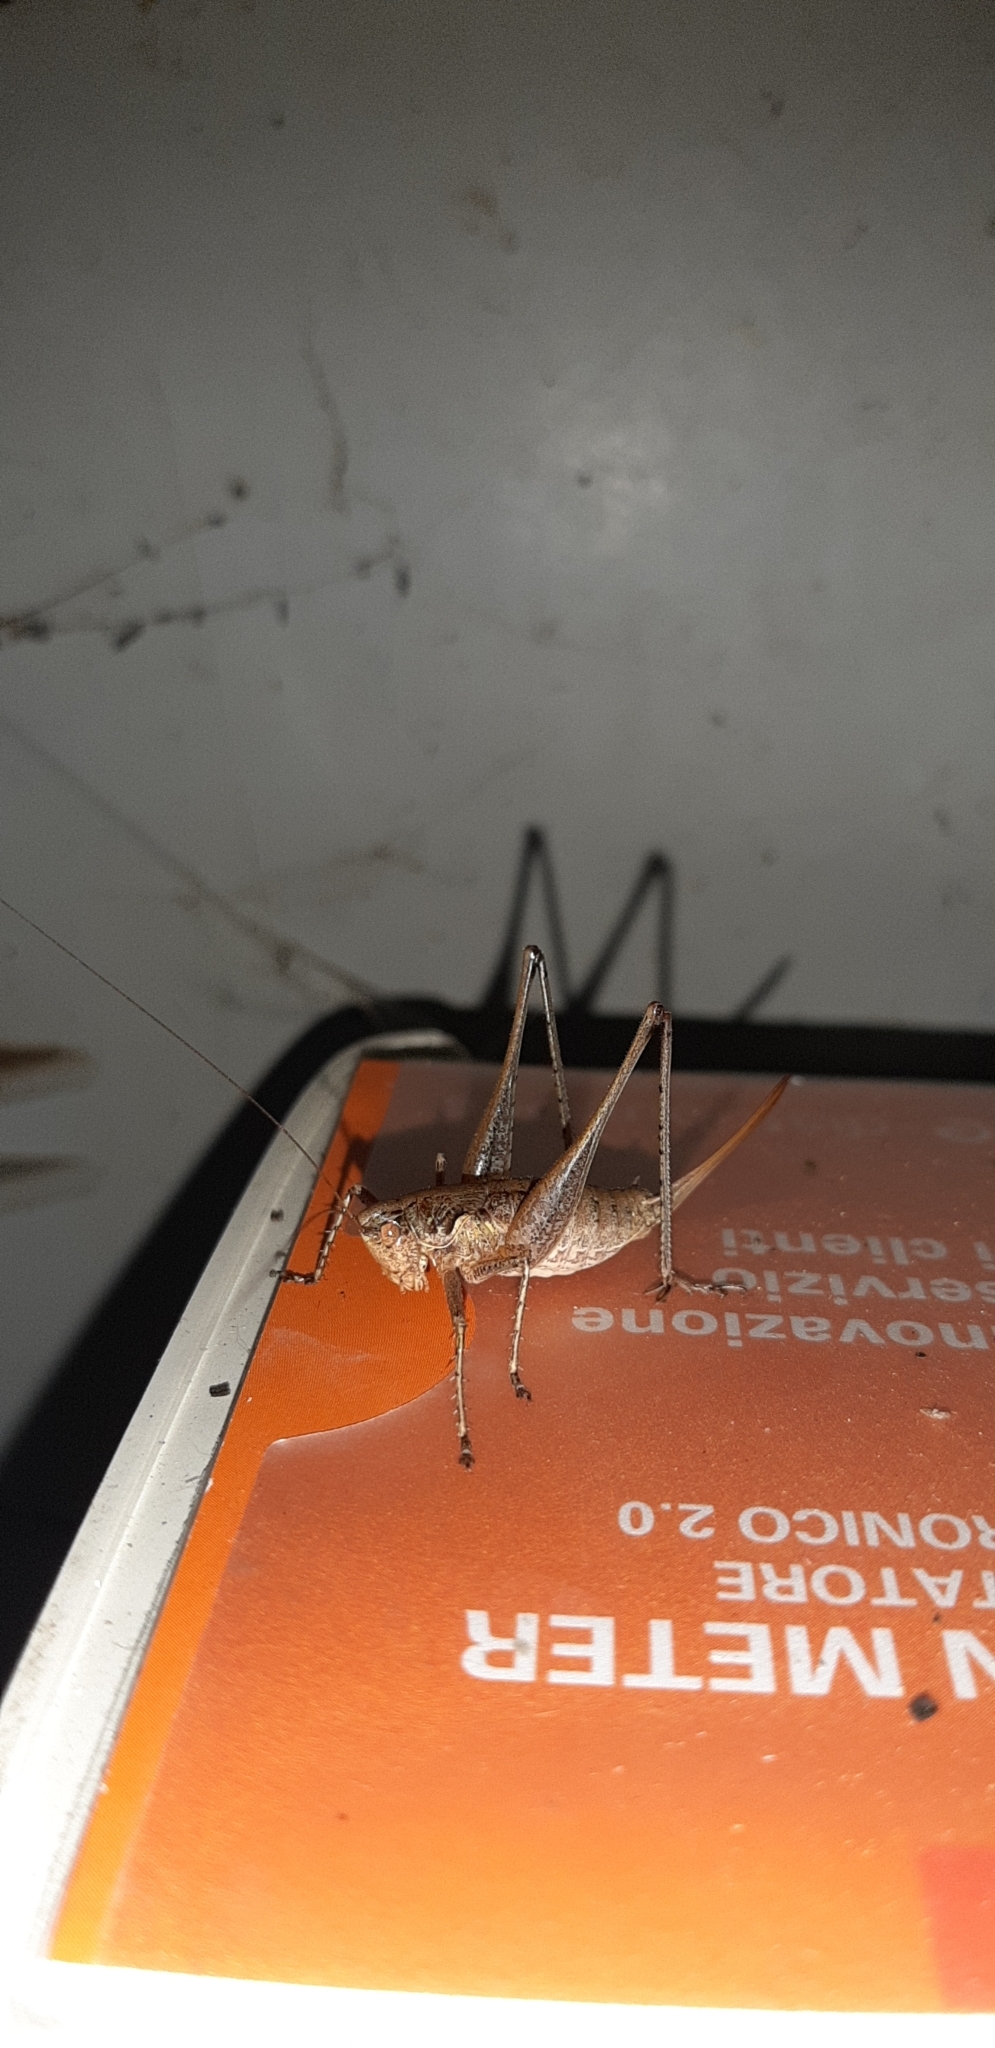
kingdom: Animalia
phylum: Arthropoda
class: Insecta
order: Orthoptera
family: Tettigoniidae
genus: Rhacocleis
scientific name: Rhacocleis germanica
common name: Mediterranean bush-cricket
